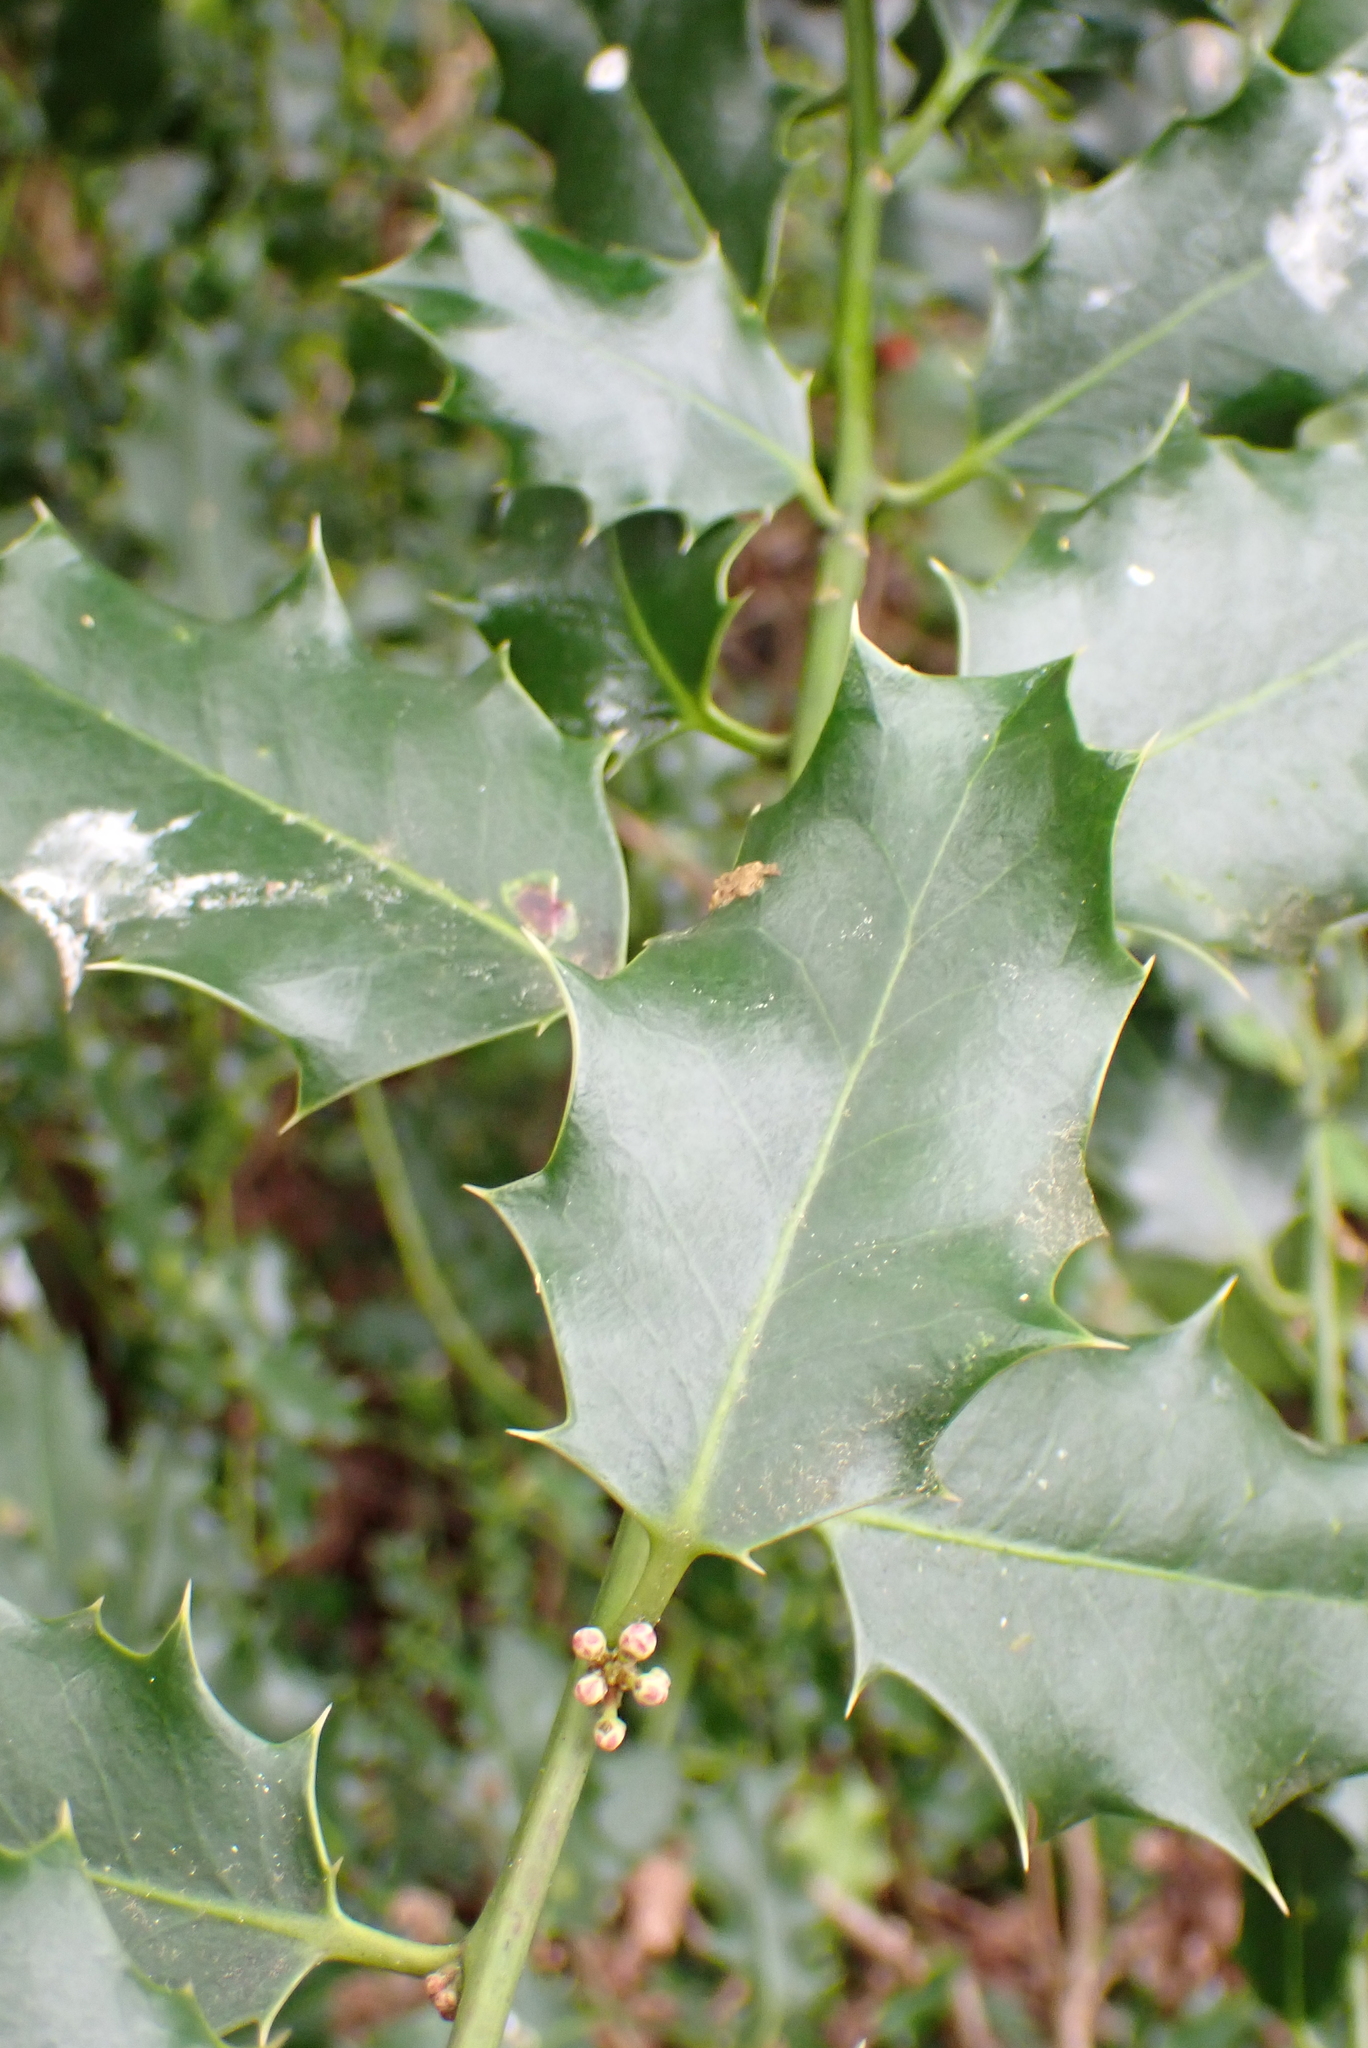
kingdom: Plantae
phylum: Tracheophyta
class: Magnoliopsida
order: Aquifoliales
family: Aquifoliaceae
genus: Ilex
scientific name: Ilex aquifolium
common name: English holly
